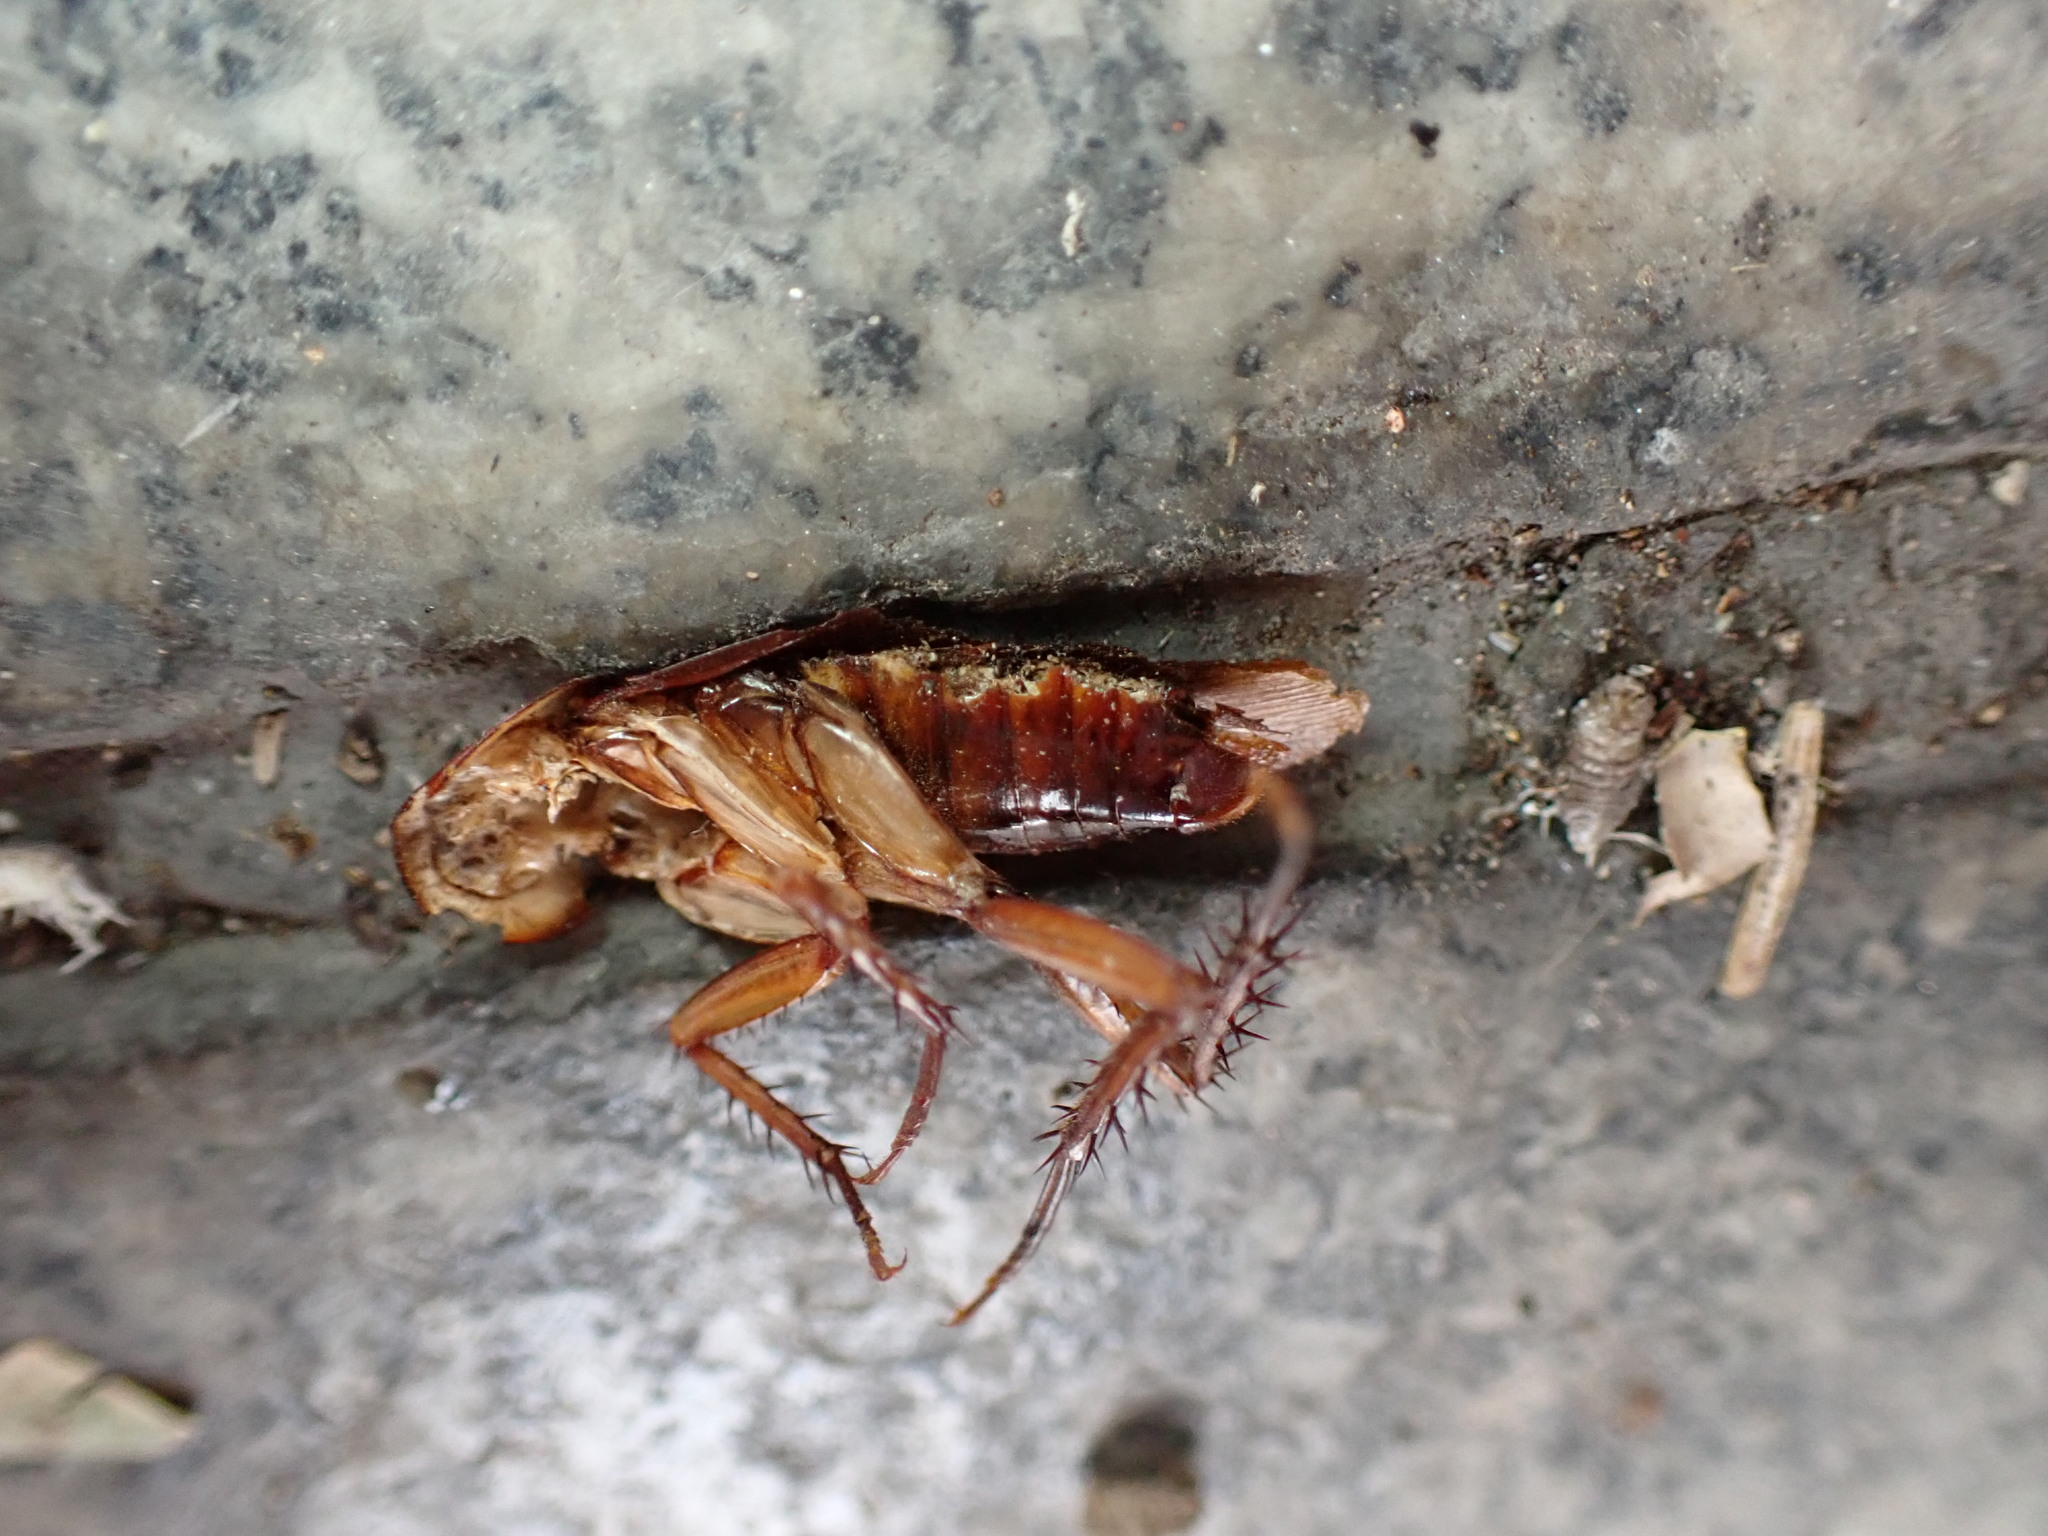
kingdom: Animalia
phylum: Arthropoda
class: Insecta
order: Blattodea
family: Blattidae
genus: Periplaneta
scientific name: Periplaneta americana
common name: American cockroach
